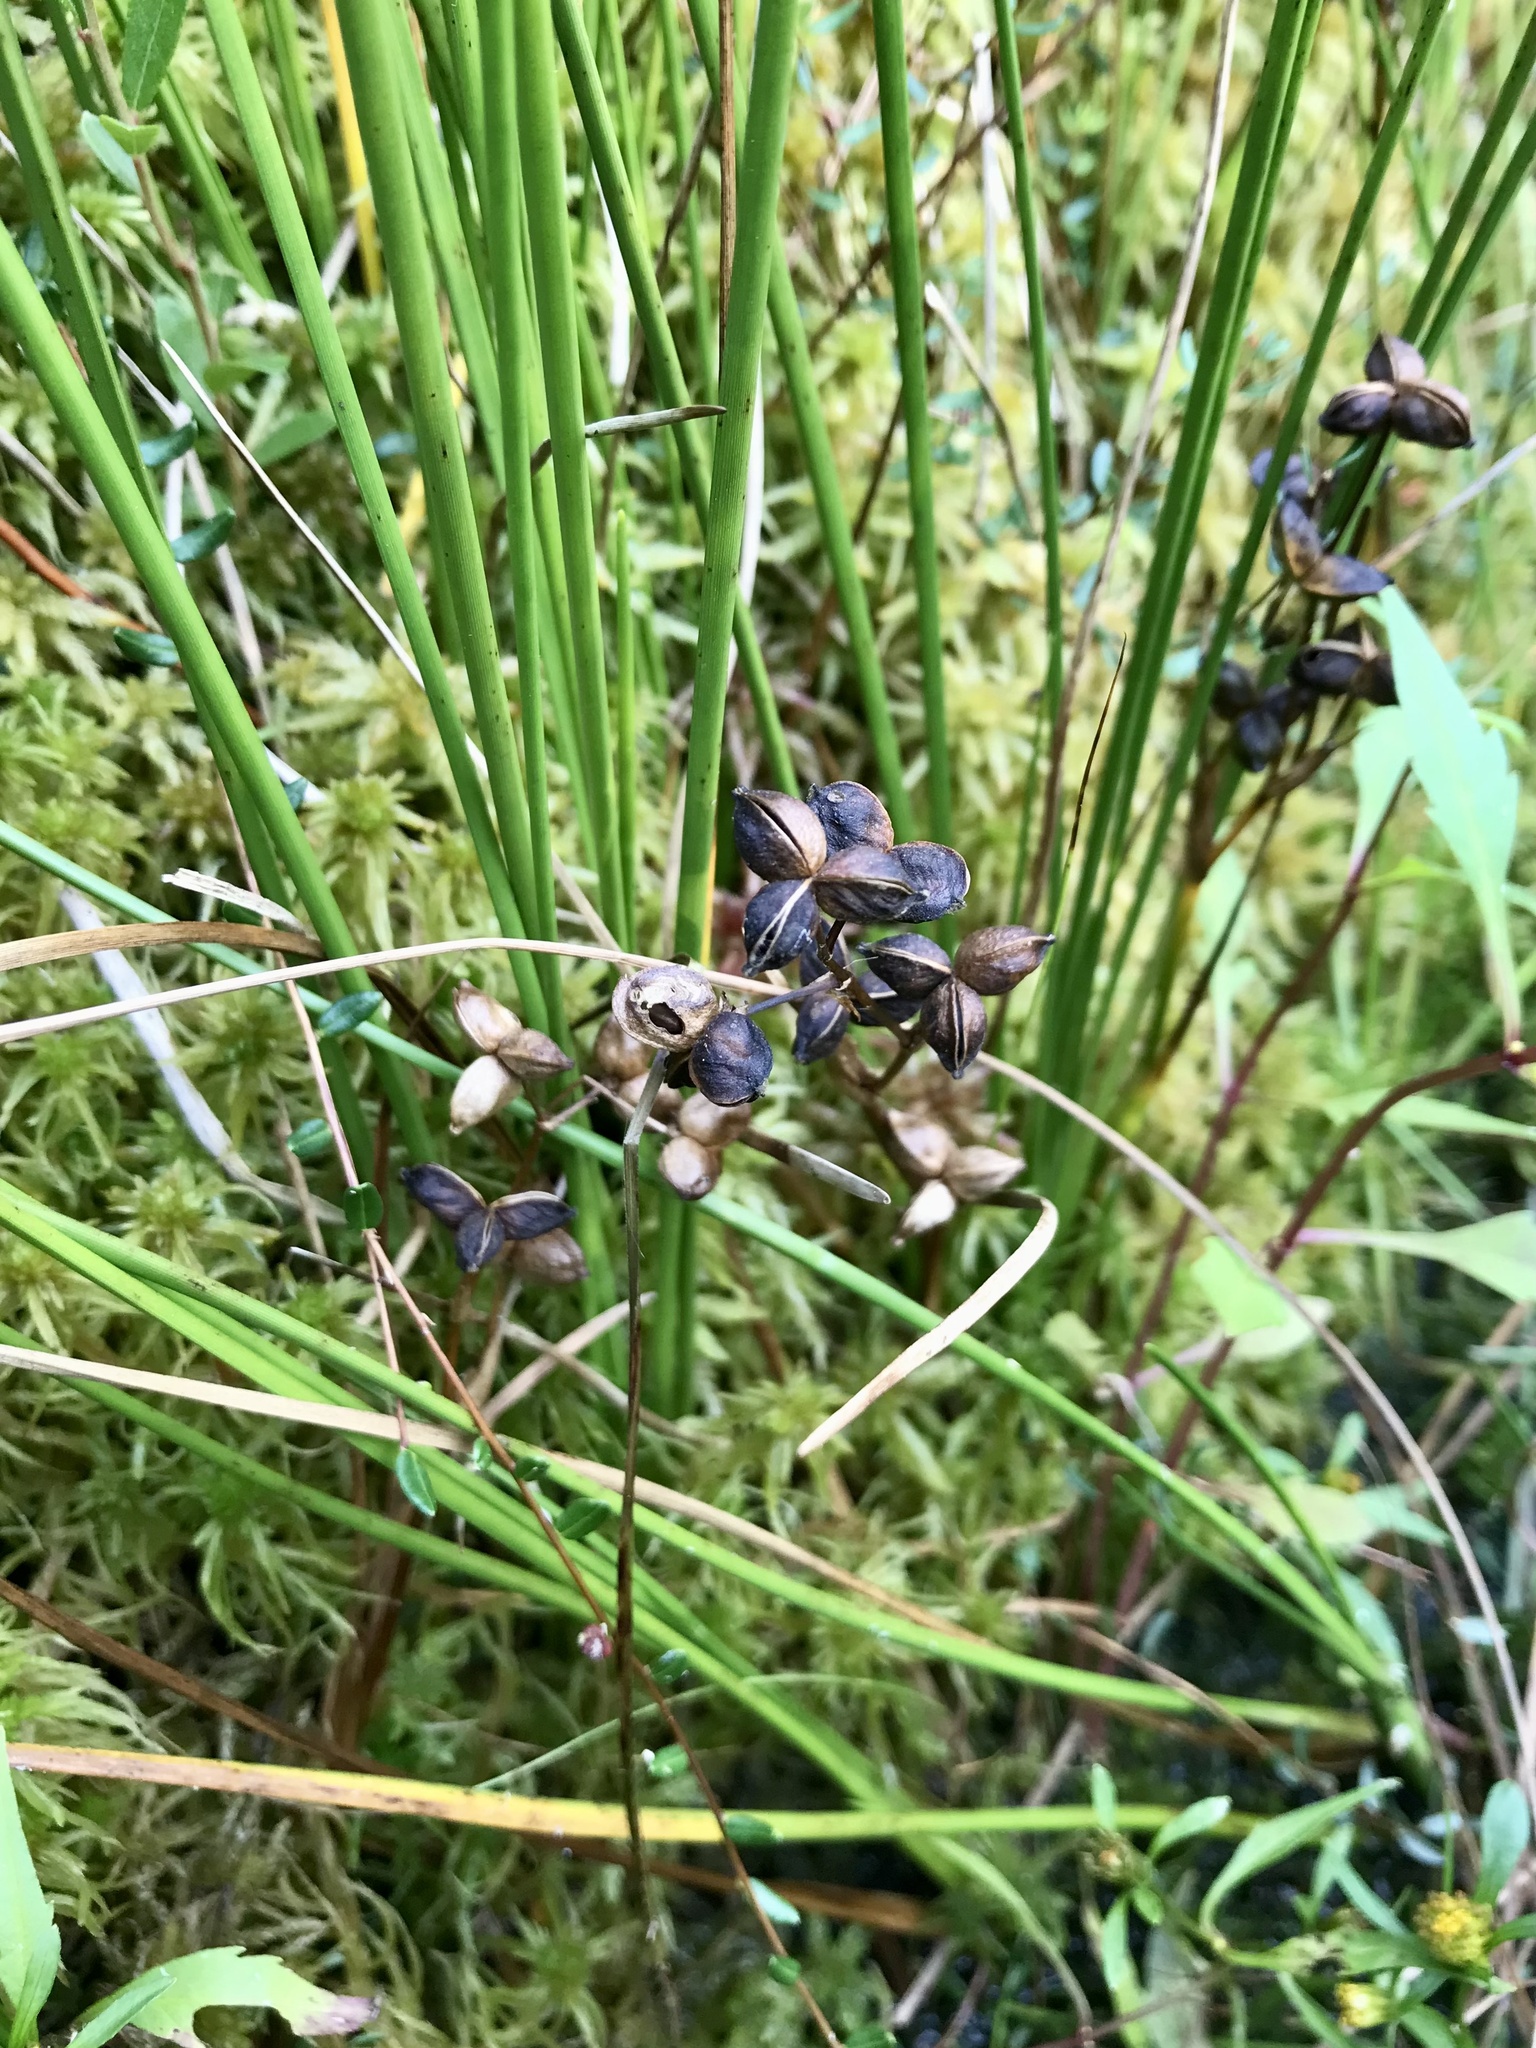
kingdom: Plantae
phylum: Tracheophyta
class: Liliopsida
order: Alismatales
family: Scheuchzeriaceae
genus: Scheuchzeria
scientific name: Scheuchzeria palustris
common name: Rannoch-rush
